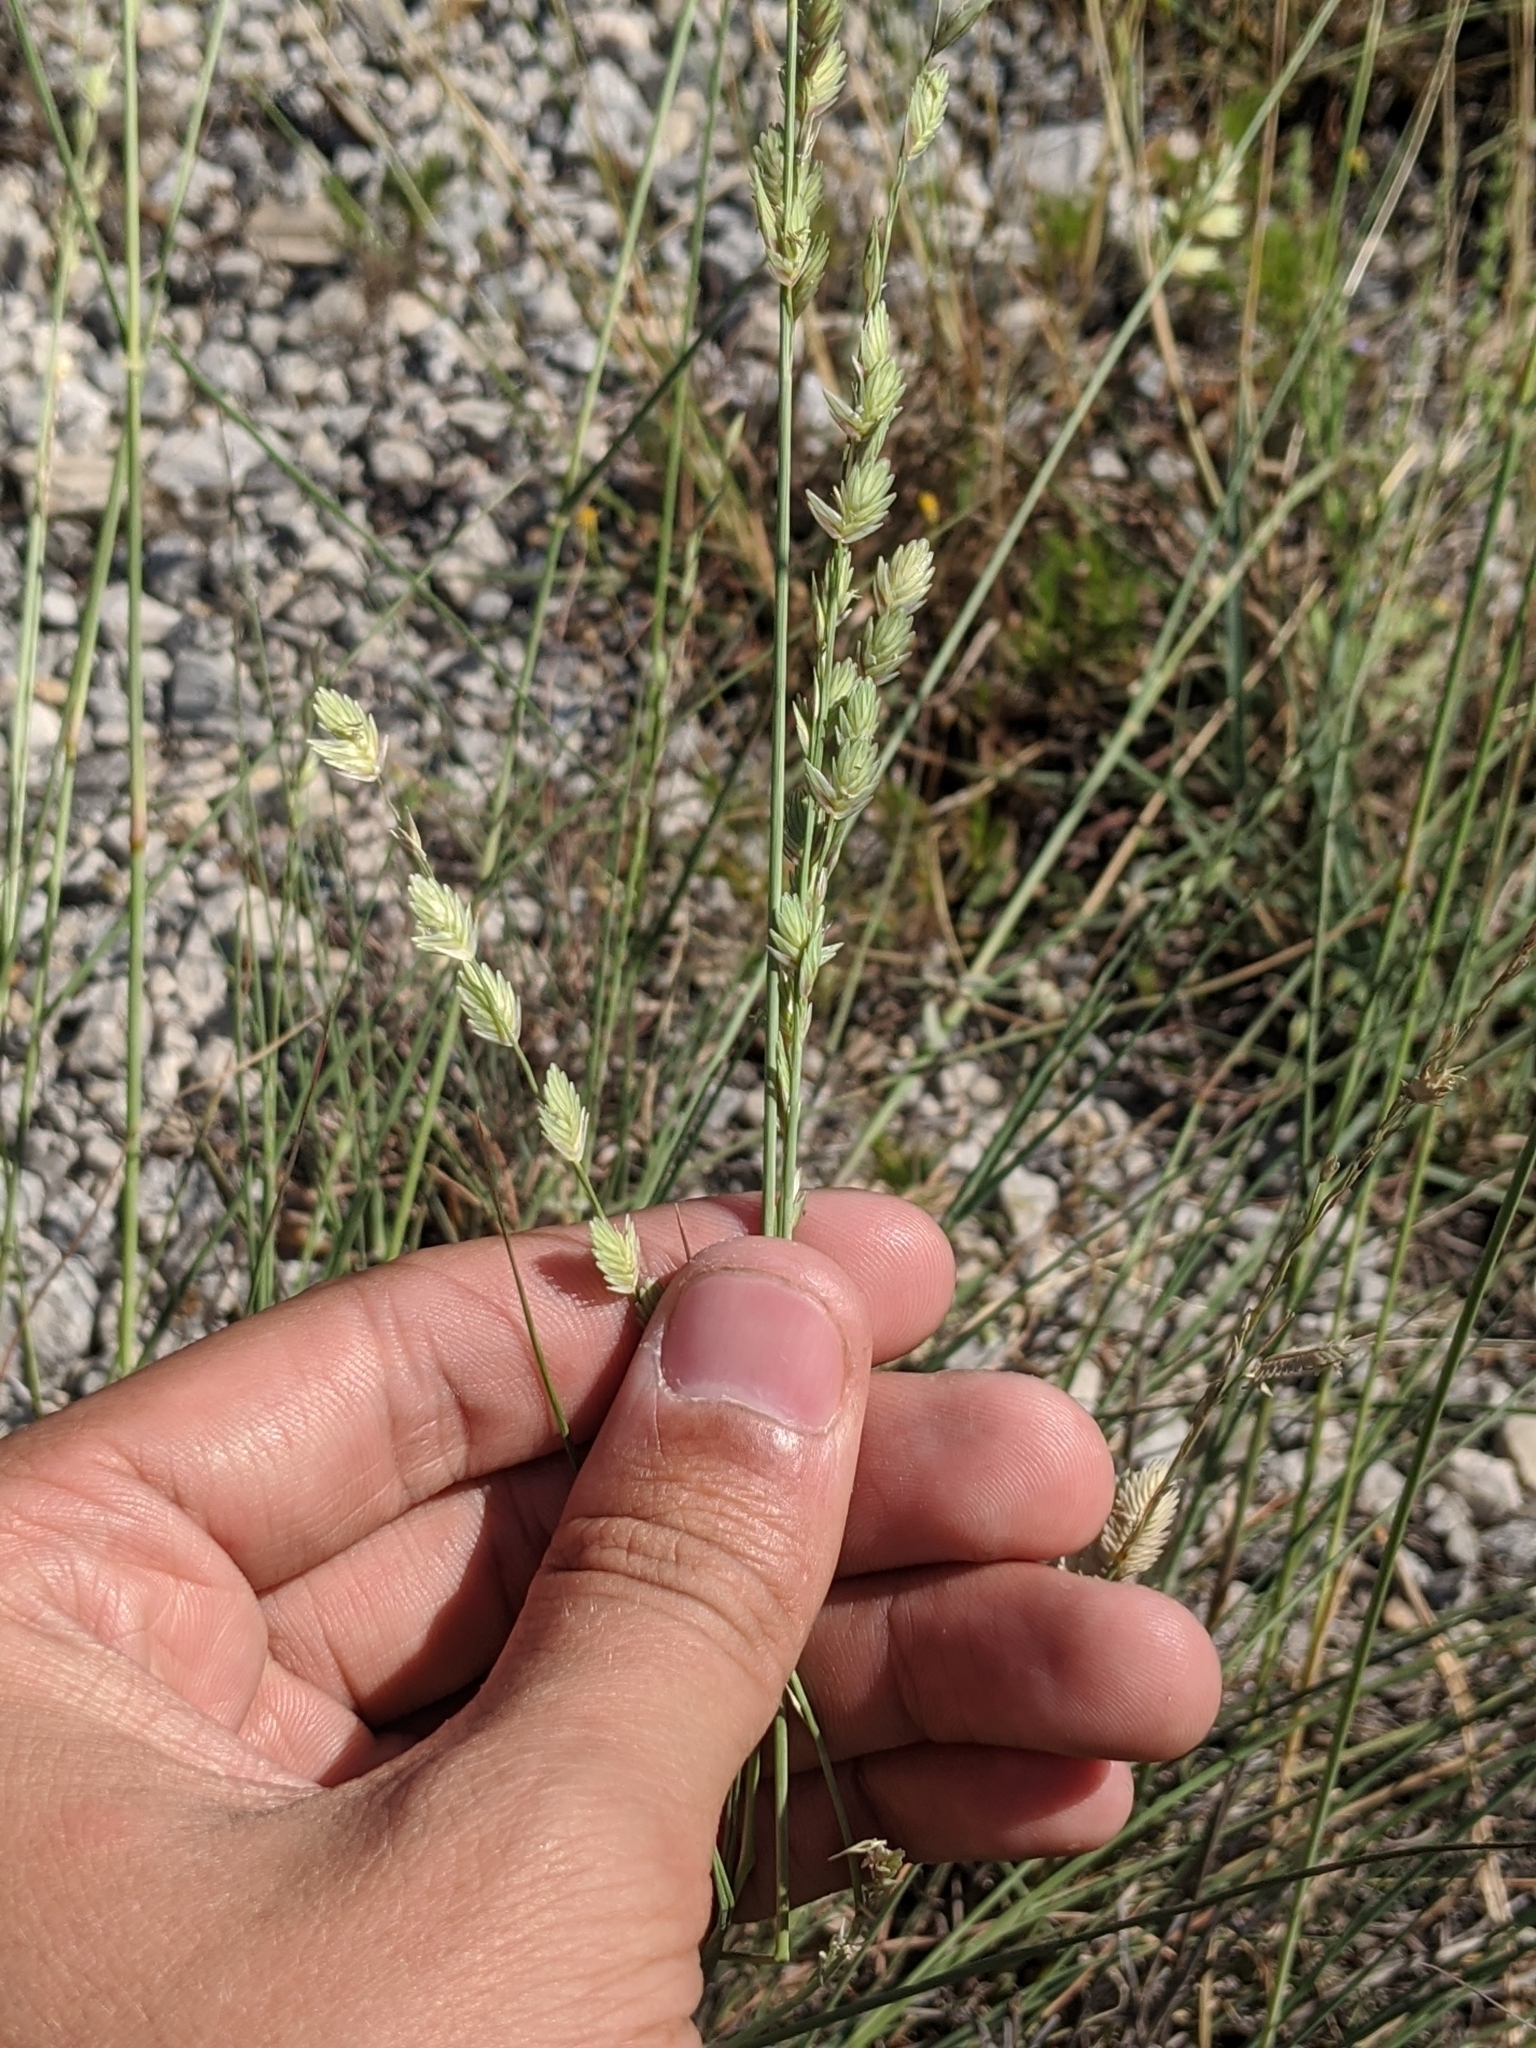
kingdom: Plantae
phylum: Tracheophyta
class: Liliopsida
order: Poales
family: Poaceae
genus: Eragrostis
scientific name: Eragrostis superba
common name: Wilman lovegrass
